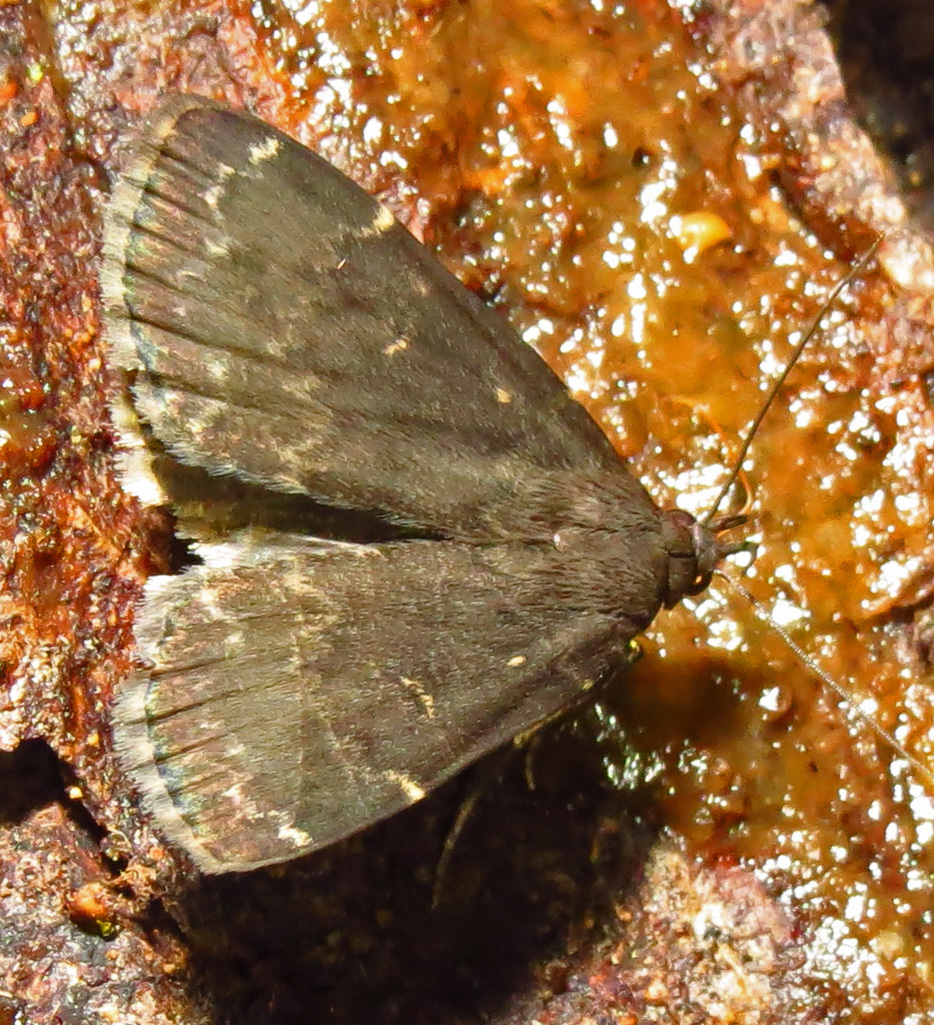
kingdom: Animalia
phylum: Arthropoda
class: Insecta
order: Lepidoptera
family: Erebidae
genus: Idia
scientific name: Idia lubricalis
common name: Twin-striped tabby
